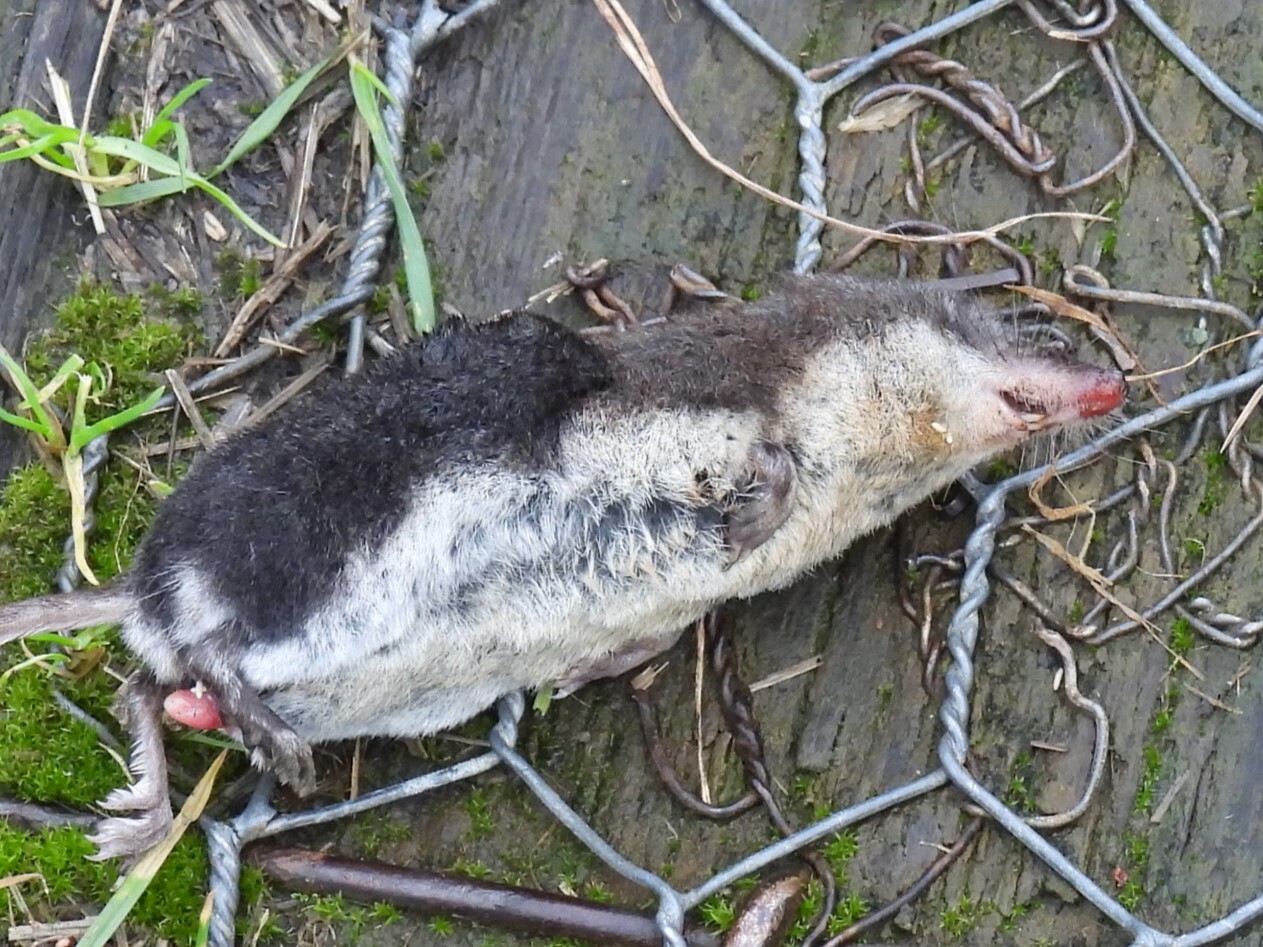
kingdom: Animalia
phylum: Chordata
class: Mammalia
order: Soricomorpha
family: Soricidae
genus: Neomys
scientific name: Neomys fodiens
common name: Eurasian water shrew
